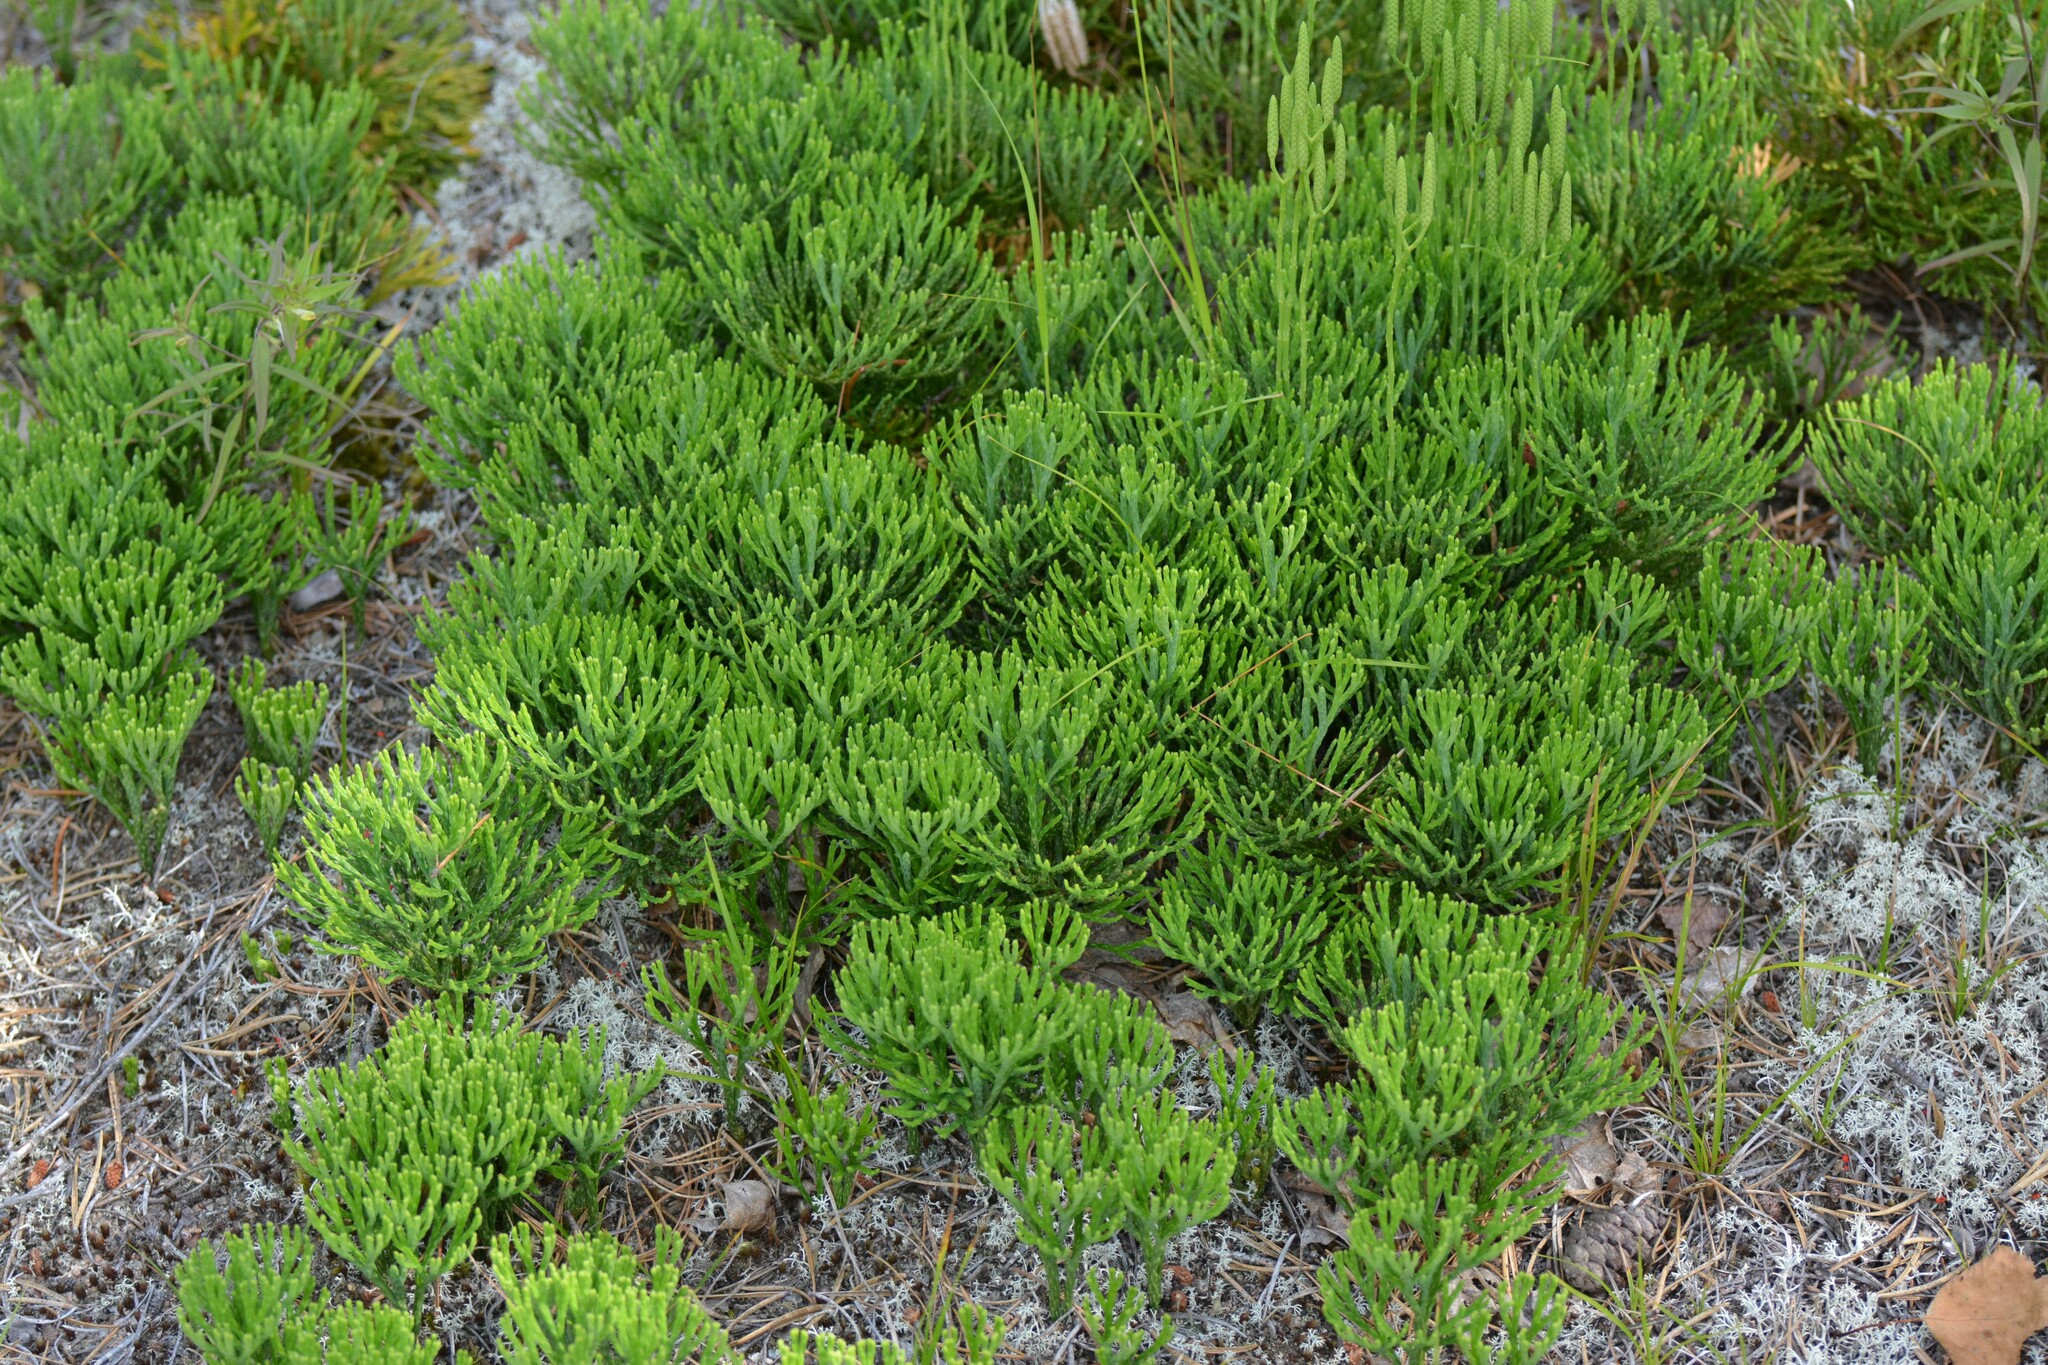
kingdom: Plantae
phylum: Tracheophyta
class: Lycopodiopsida
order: Lycopodiales
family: Lycopodiaceae
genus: Diphasiastrum
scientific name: Diphasiastrum tristachyum
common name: Blue ground-cedar
